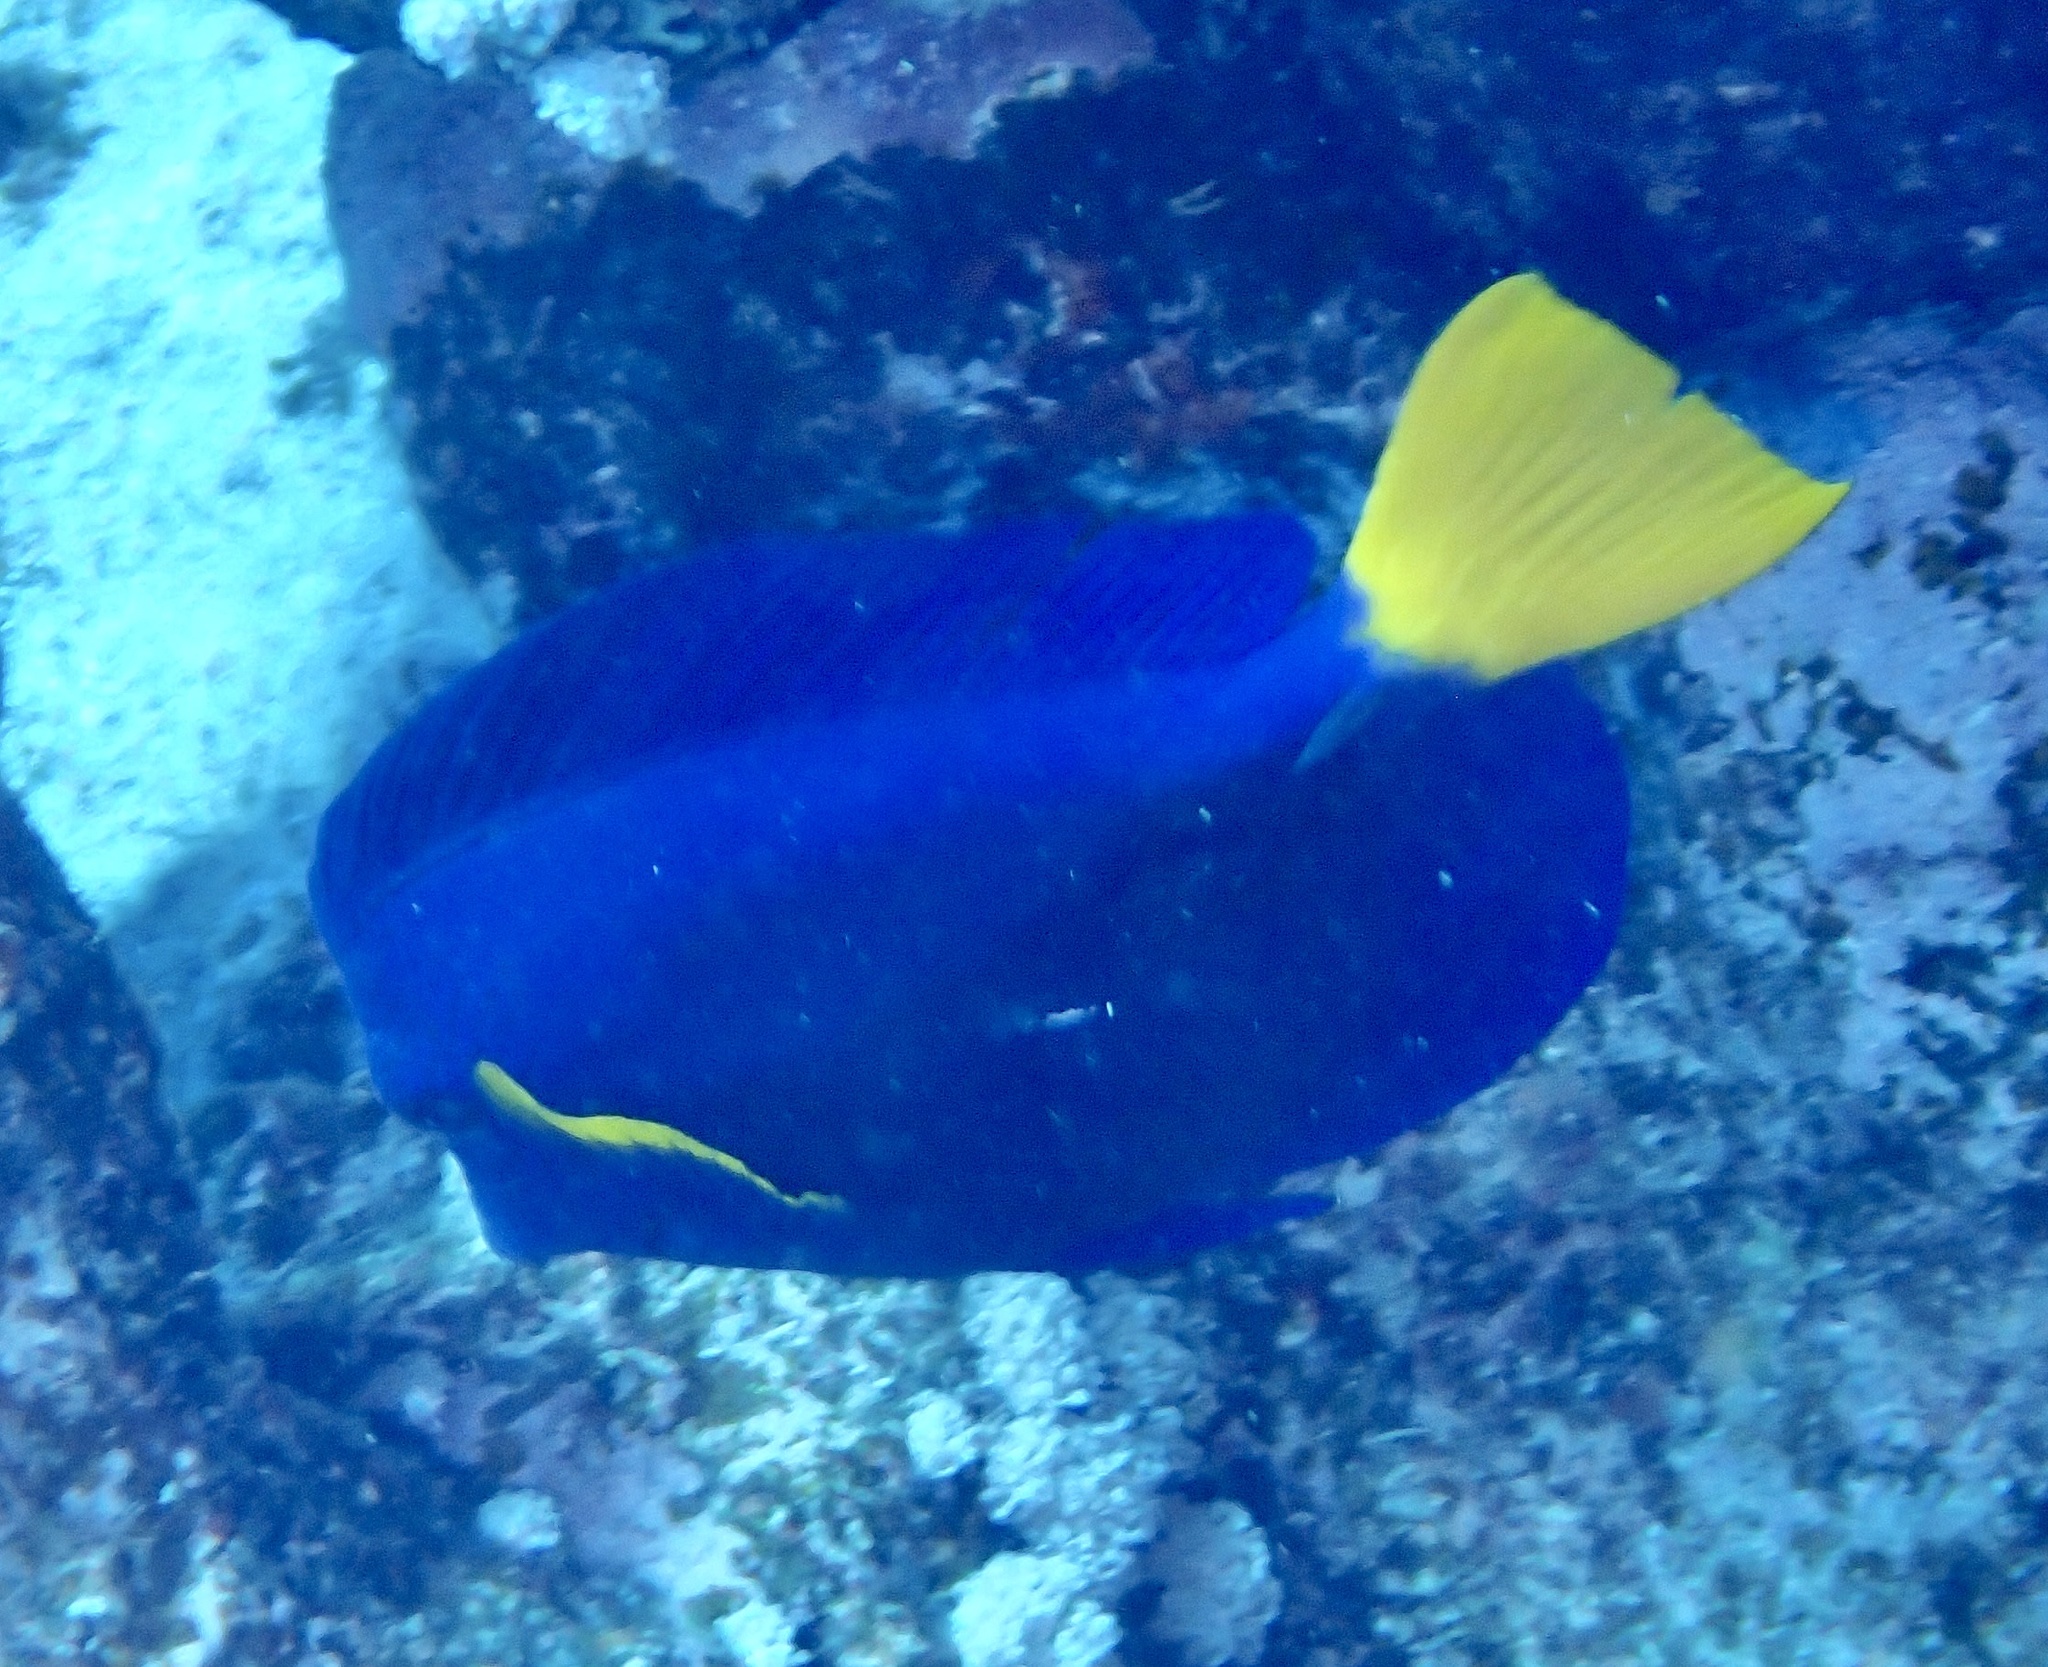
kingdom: Animalia
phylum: Chordata
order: Perciformes
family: Acanthuridae
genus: Zebrasoma
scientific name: Zebrasoma xanthurum
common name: Purple tang
